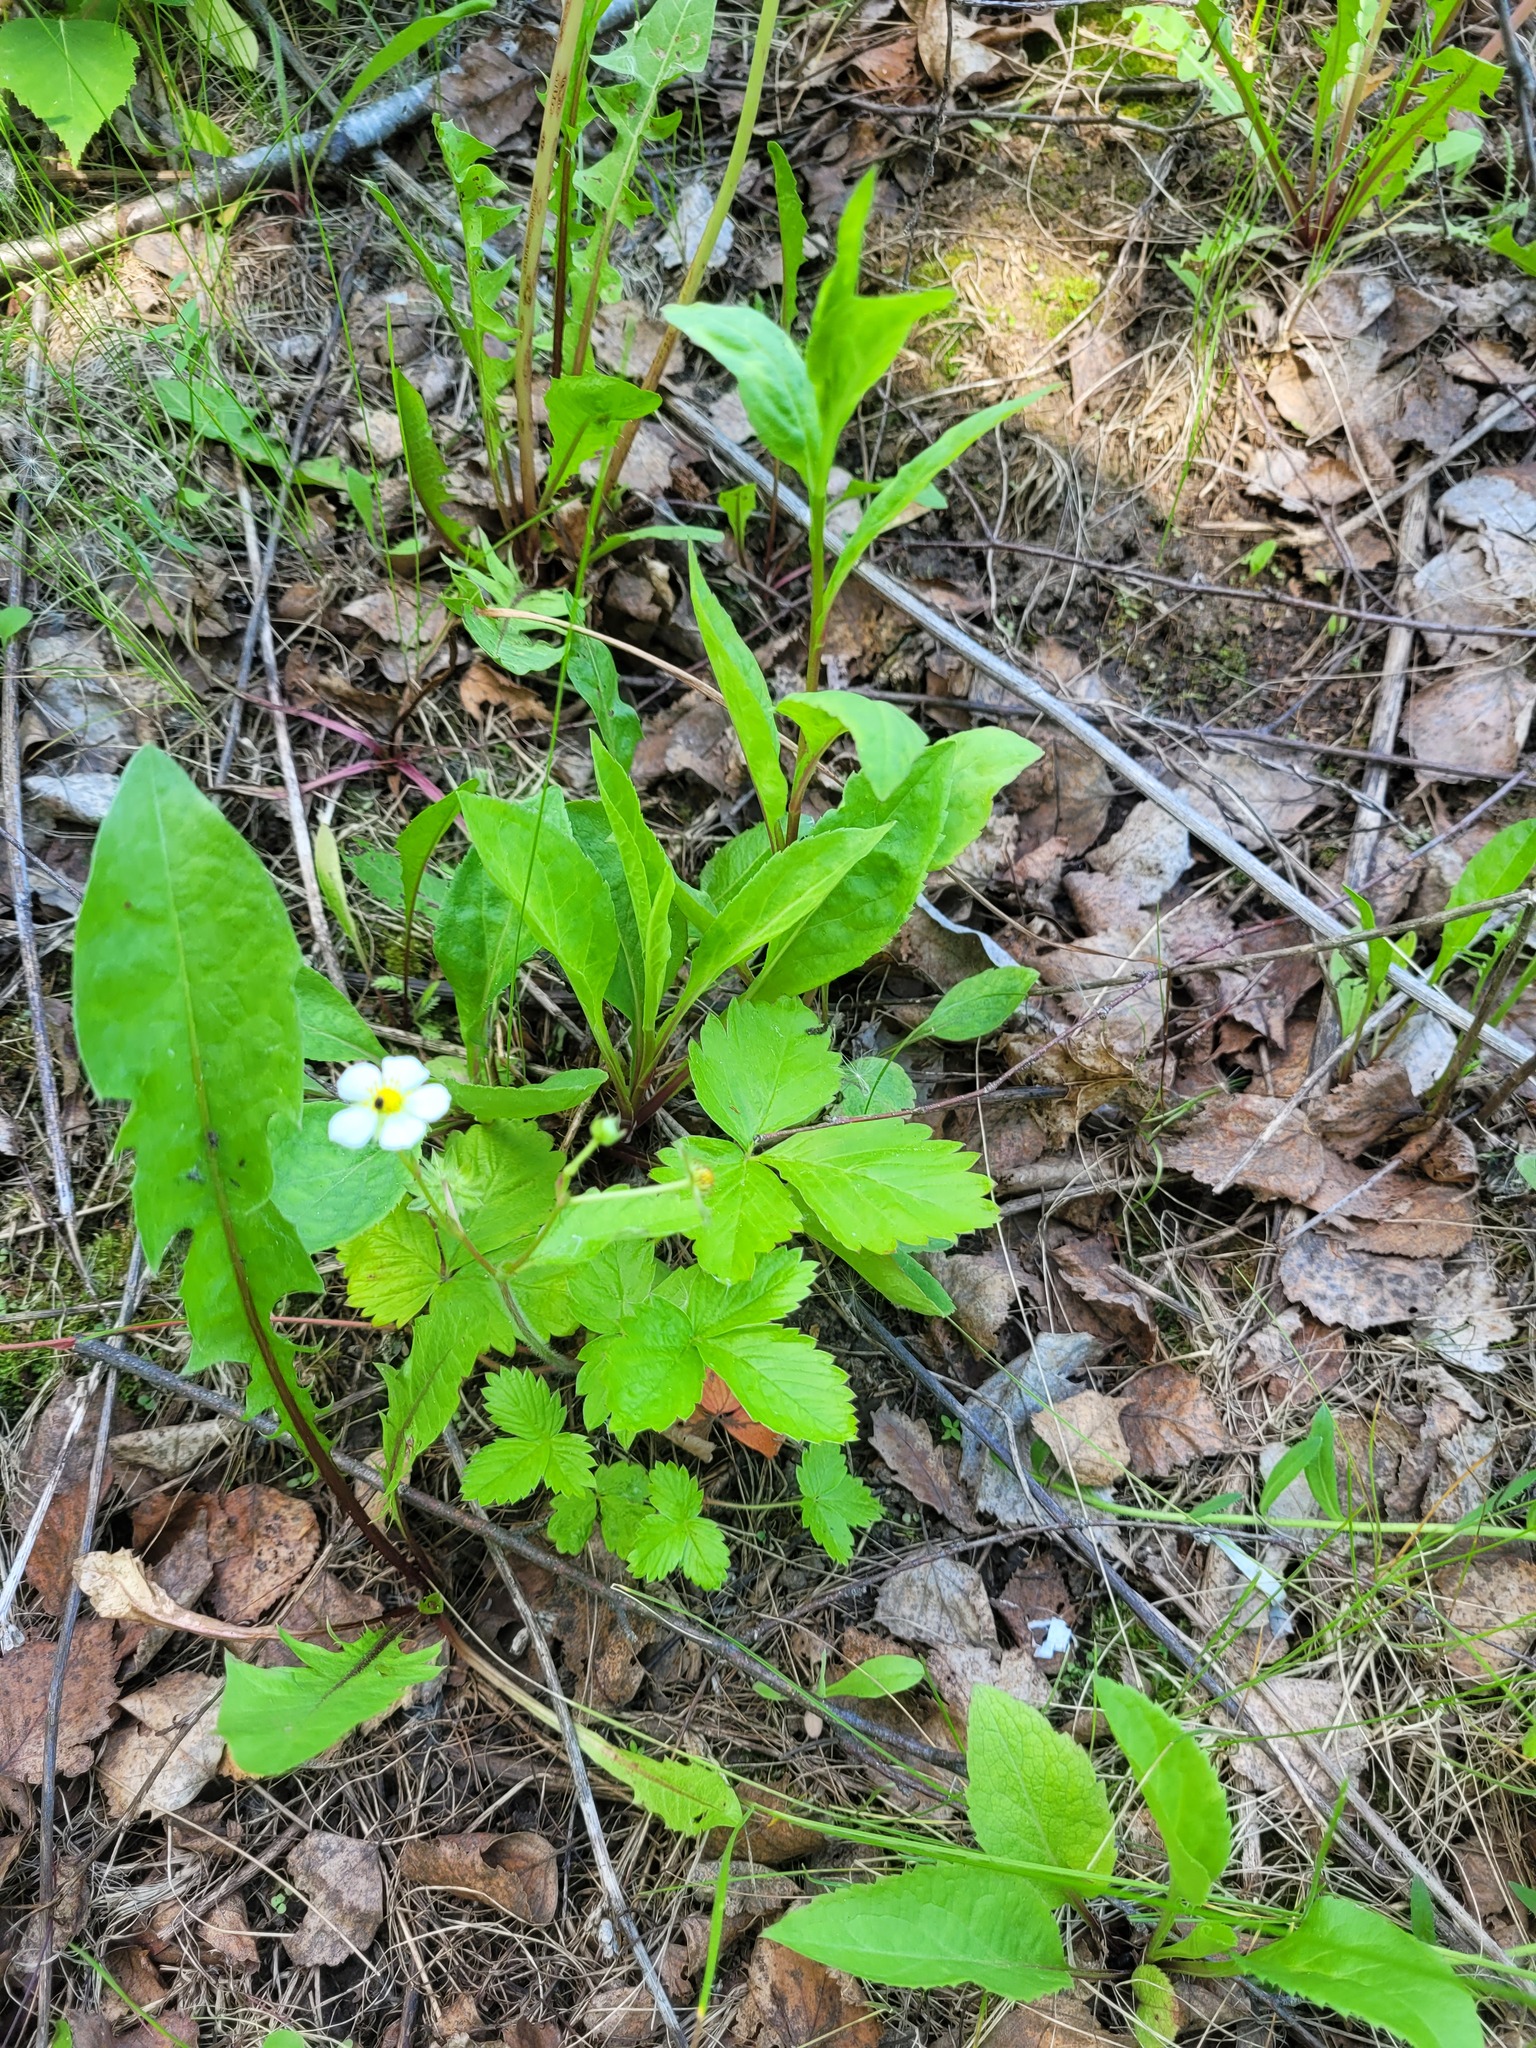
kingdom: Plantae
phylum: Tracheophyta
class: Magnoliopsida
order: Rosales
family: Rosaceae
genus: Fragaria
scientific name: Fragaria vesca
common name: Wild strawberry
